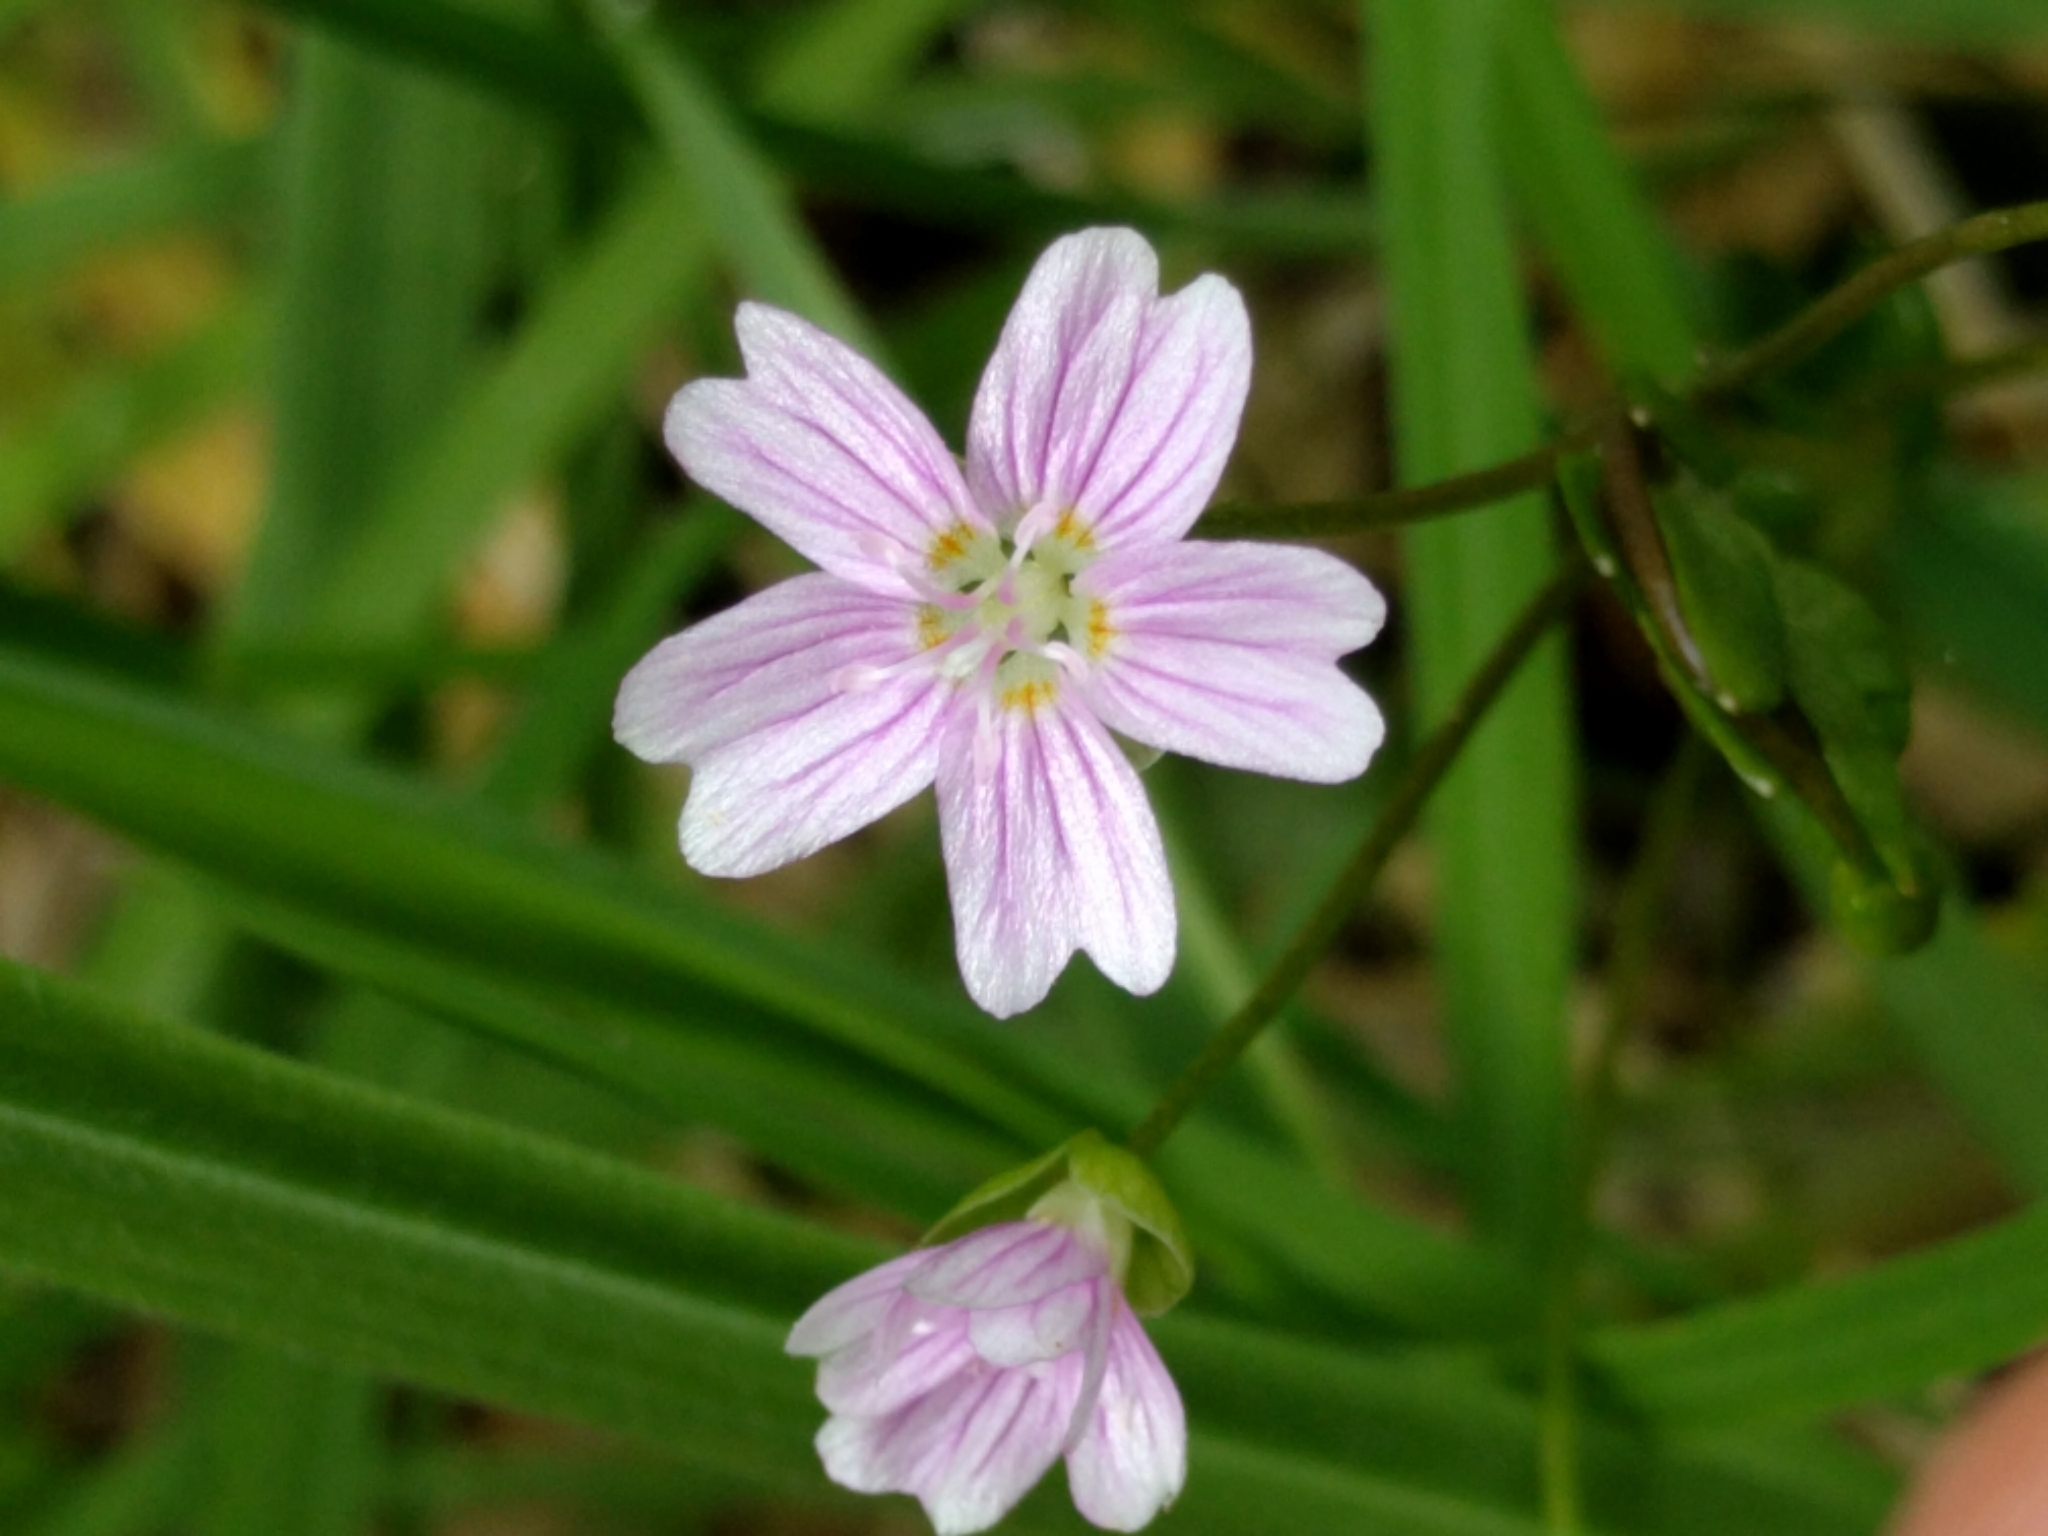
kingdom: Plantae
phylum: Tracheophyta
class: Magnoliopsida
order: Caryophyllales
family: Montiaceae
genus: Claytonia
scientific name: Claytonia sibirica
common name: Pink purslane
